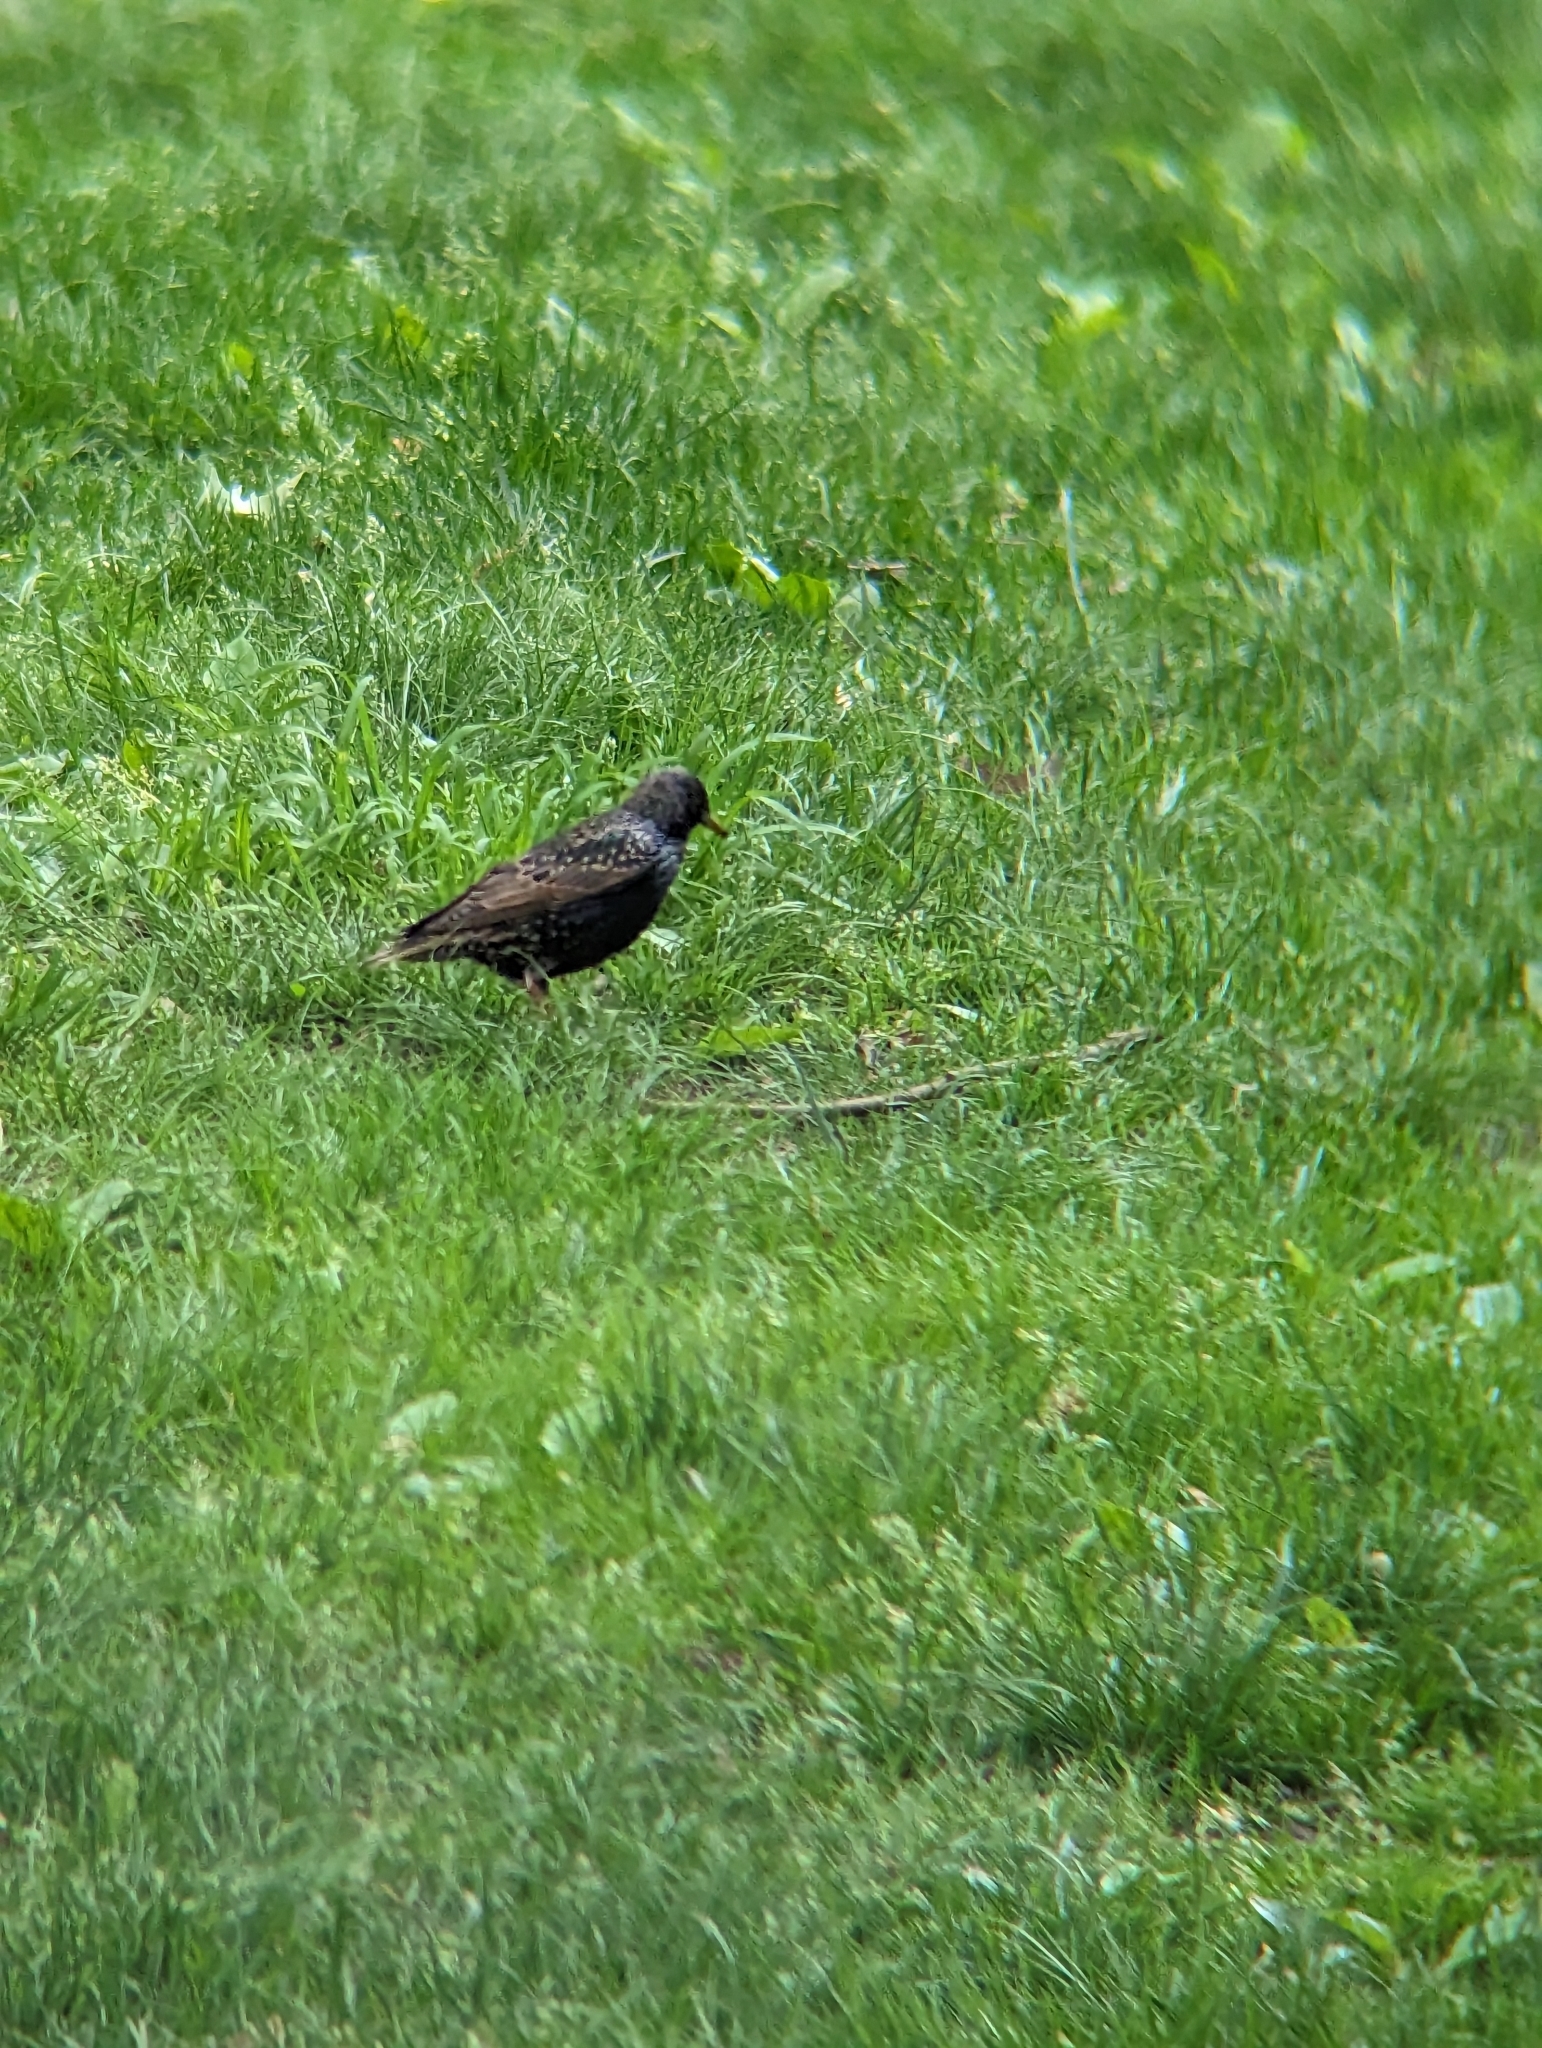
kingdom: Animalia
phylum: Chordata
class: Aves
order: Passeriformes
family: Sturnidae
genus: Sturnus
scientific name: Sturnus vulgaris
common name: Common starling
